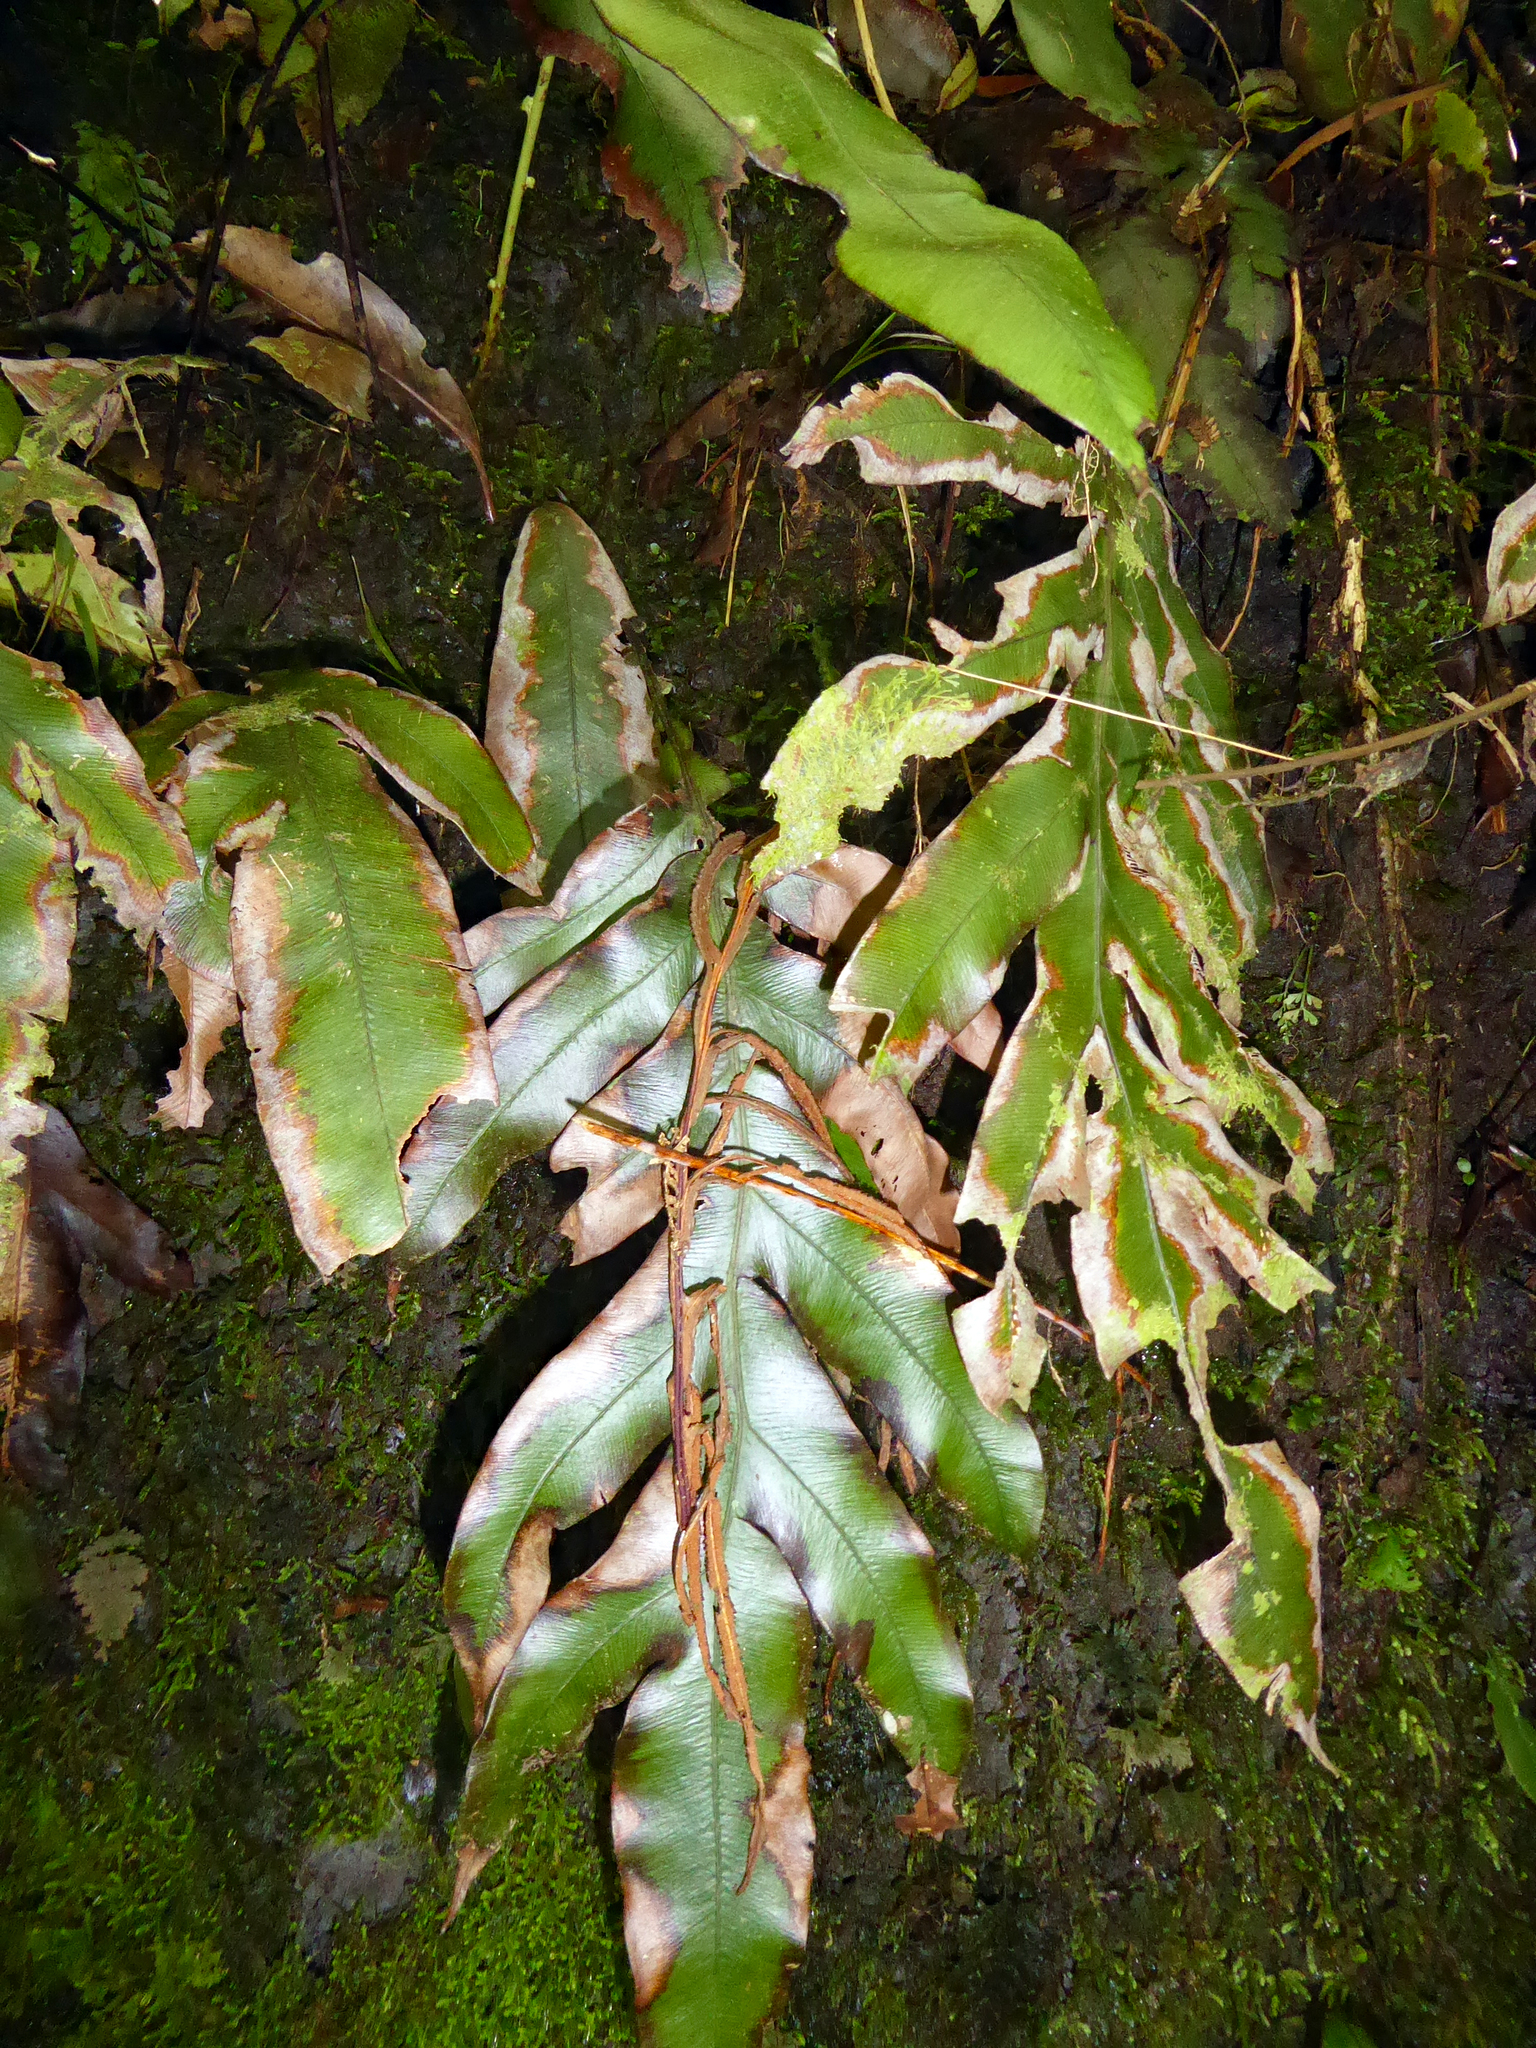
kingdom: Plantae
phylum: Tracheophyta
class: Polypodiopsida
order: Polypodiales
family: Blechnaceae
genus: Austroblechnum
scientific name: Austroblechnum colensoi
